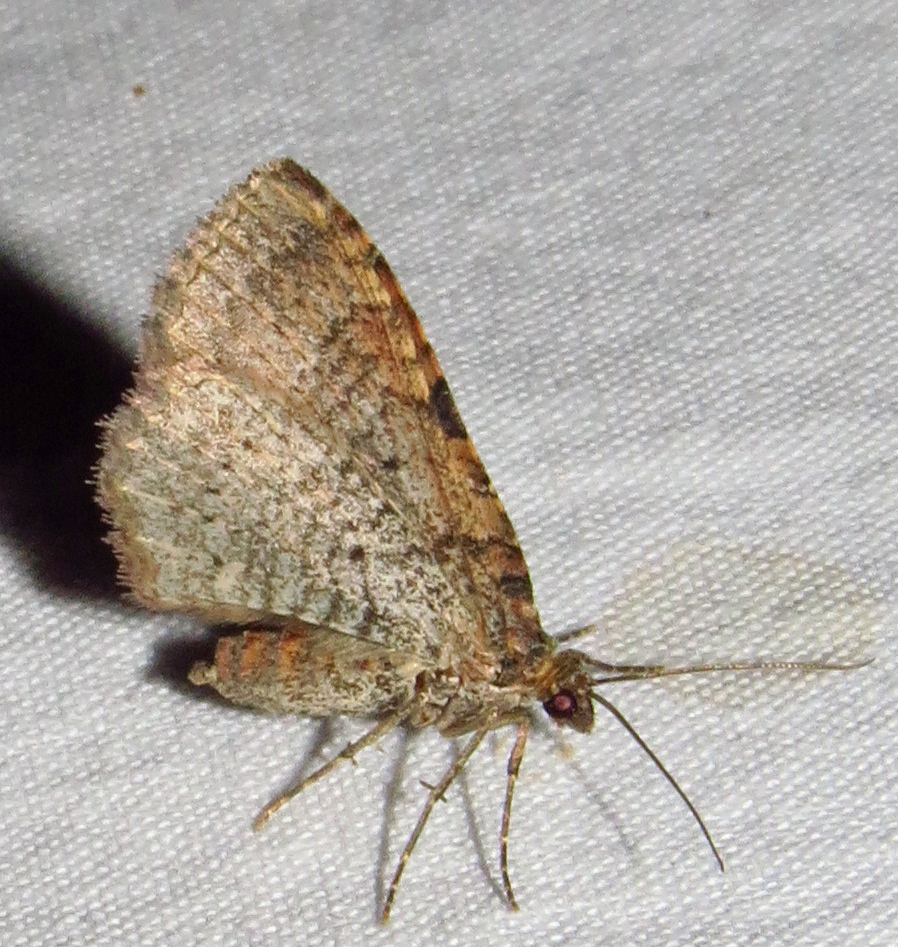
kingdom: Animalia
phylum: Arthropoda
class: Insecta
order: Lepidoptera
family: Geometridae
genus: Costaconvexa
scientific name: Costaconvexa centrostrigaria
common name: Bent-line carpet
